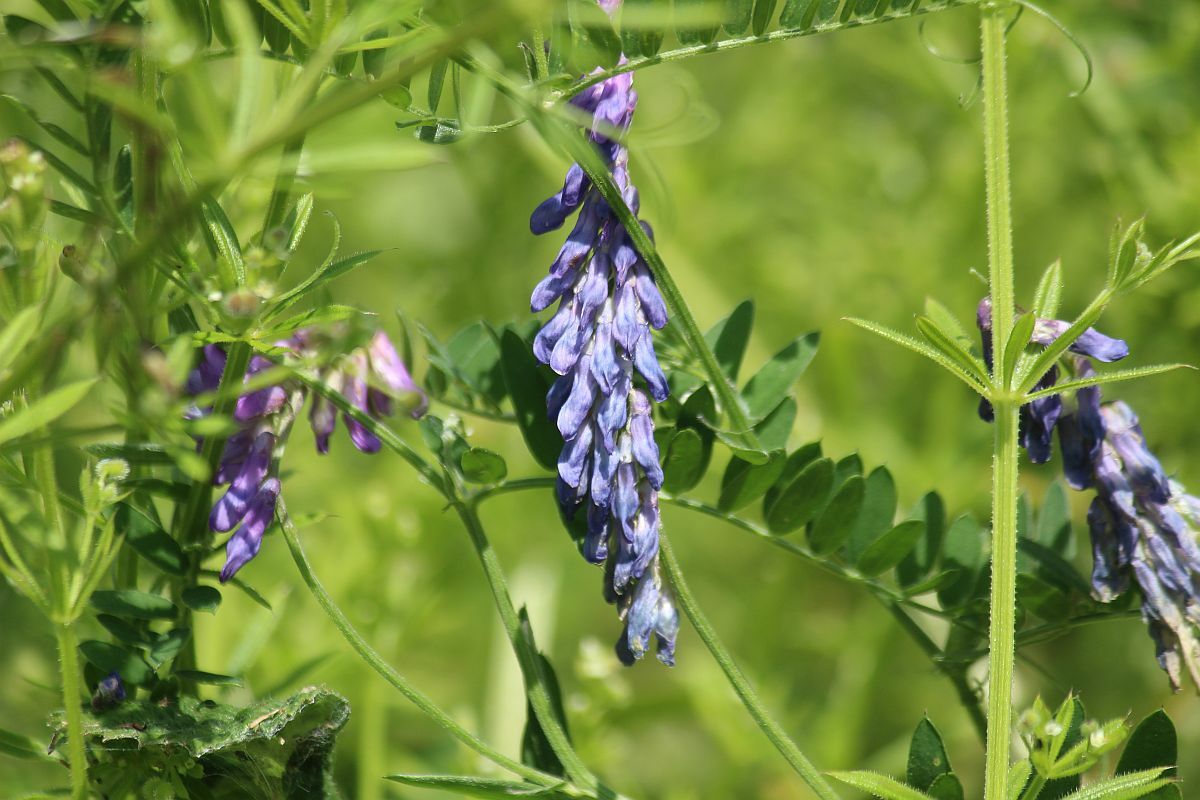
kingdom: Plantae
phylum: Tracheophyta
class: Magnoliopsida
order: Fabales
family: Fabaceae
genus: Vicia
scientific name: Vicia cracca
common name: Bird vetch
